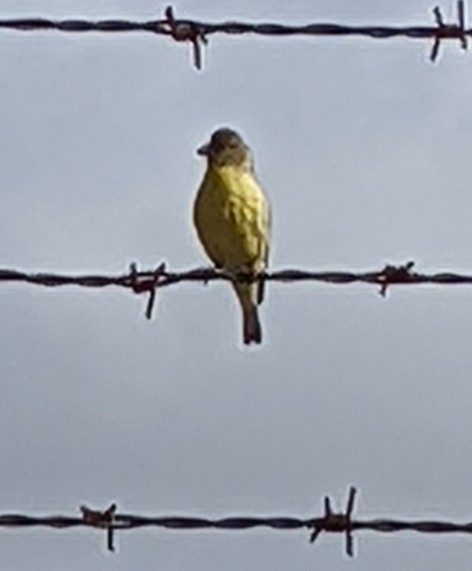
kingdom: Animalia
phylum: Chordata
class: Aves
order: Passeriformes
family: Fringillidae
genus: Spinus
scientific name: Spinus psaltria
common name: Lesser goldfinch
